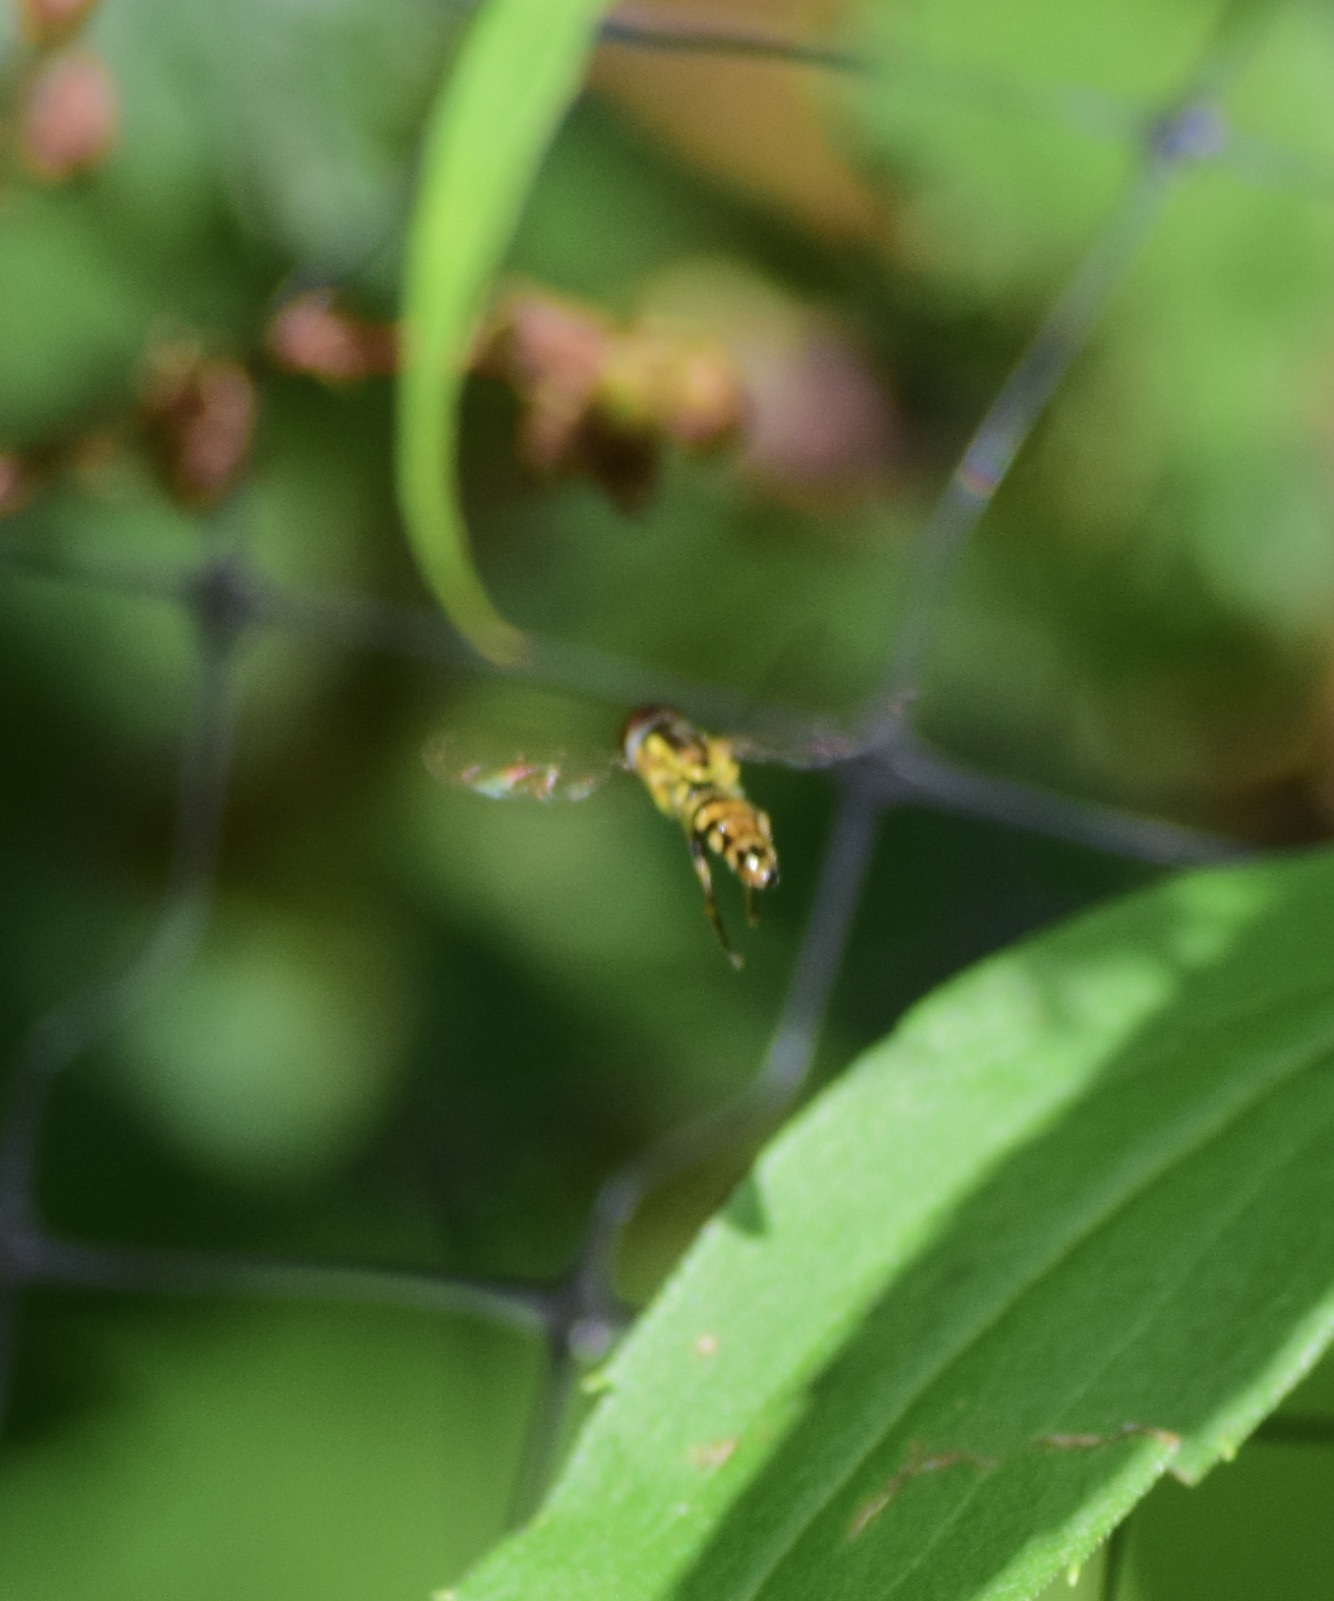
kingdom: Animalia
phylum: Arthropoda
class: Insecta
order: Diptera
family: Syrphidae
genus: Toxomerus
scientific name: Toxomerus geminatus
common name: Eastern calligrapher
